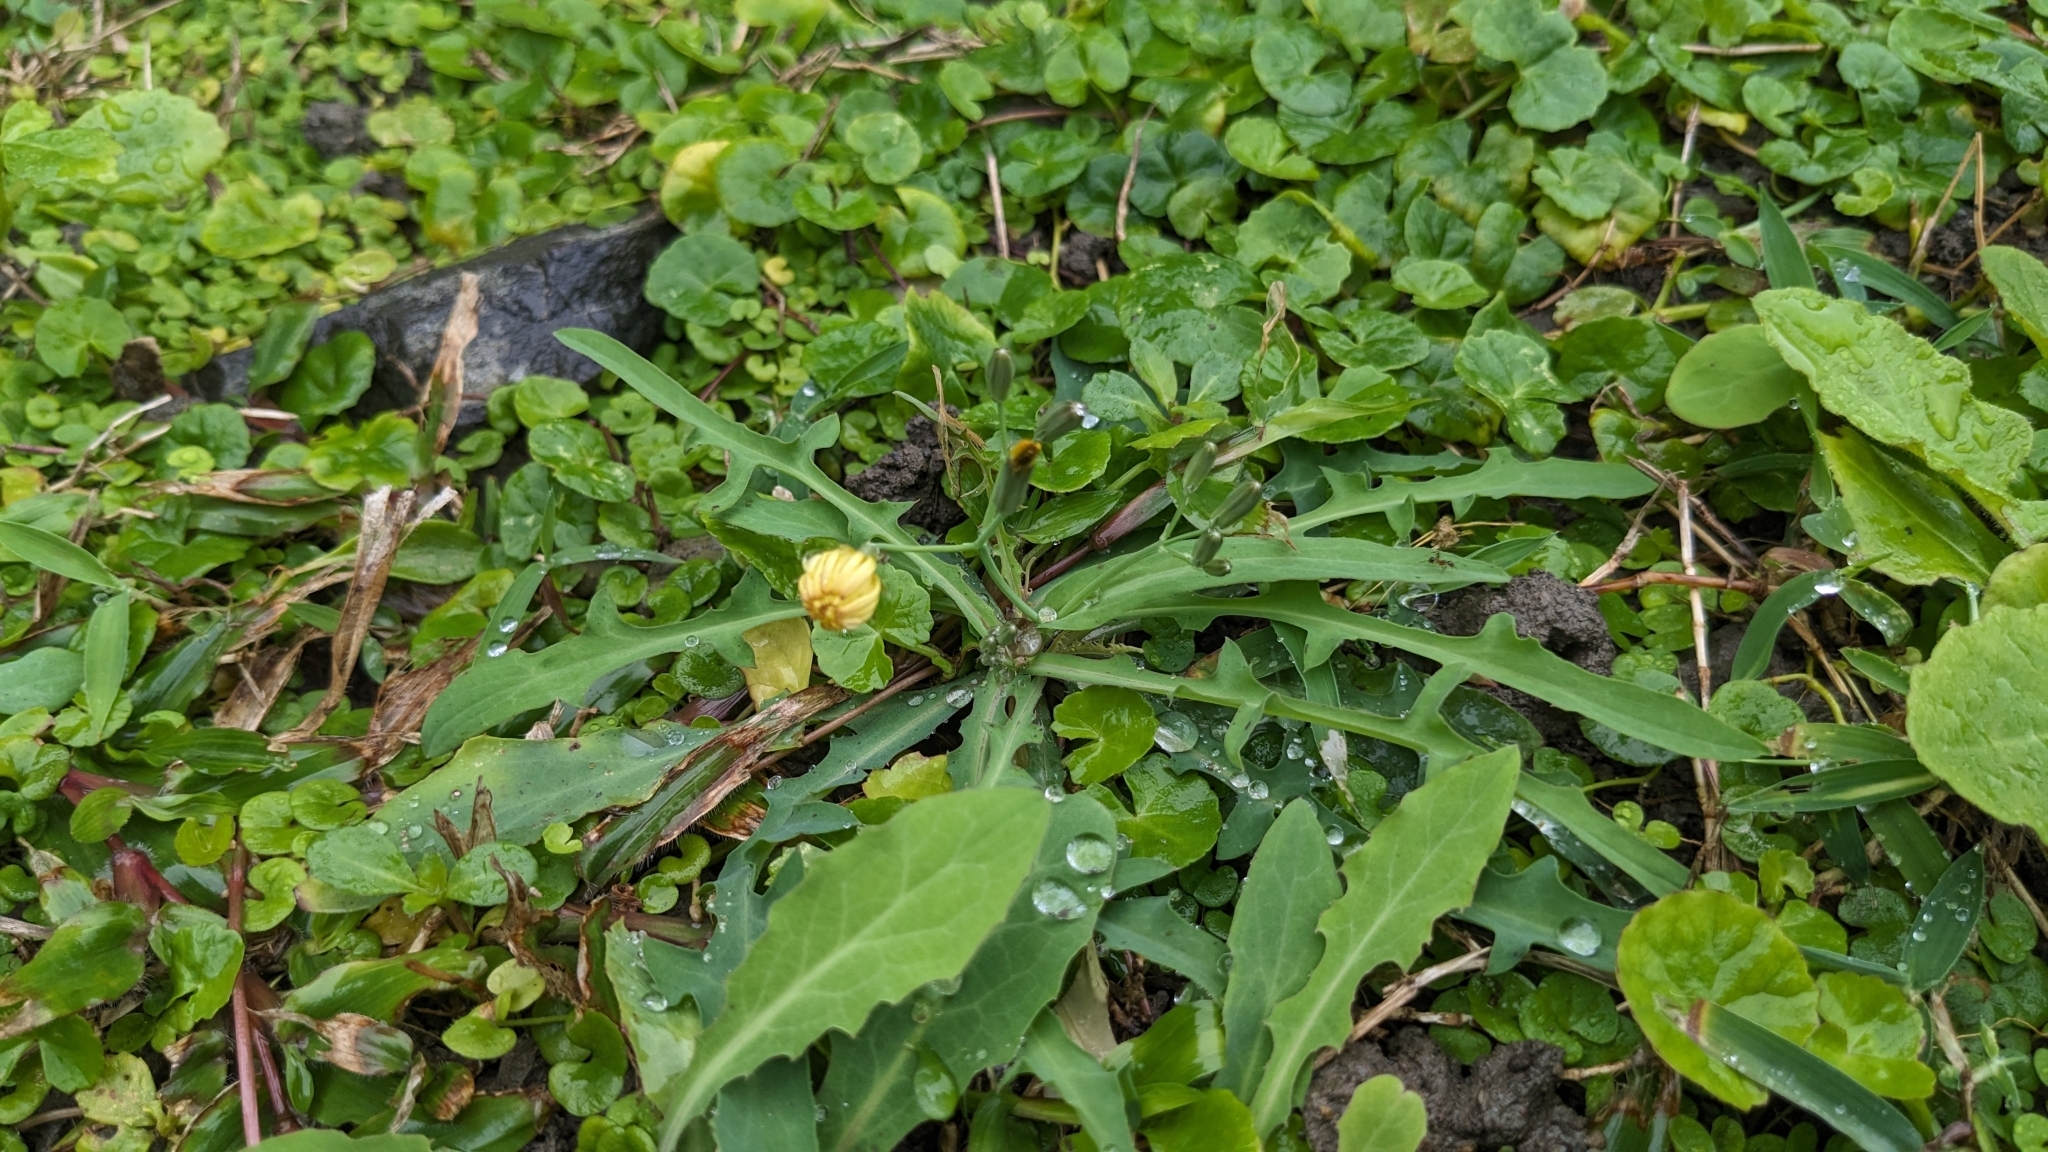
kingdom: Plantae
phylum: Tracheophyta
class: Magnoliopsida
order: Asterales
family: Asteraceae
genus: Ixeris
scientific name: Ixeris chinensis
